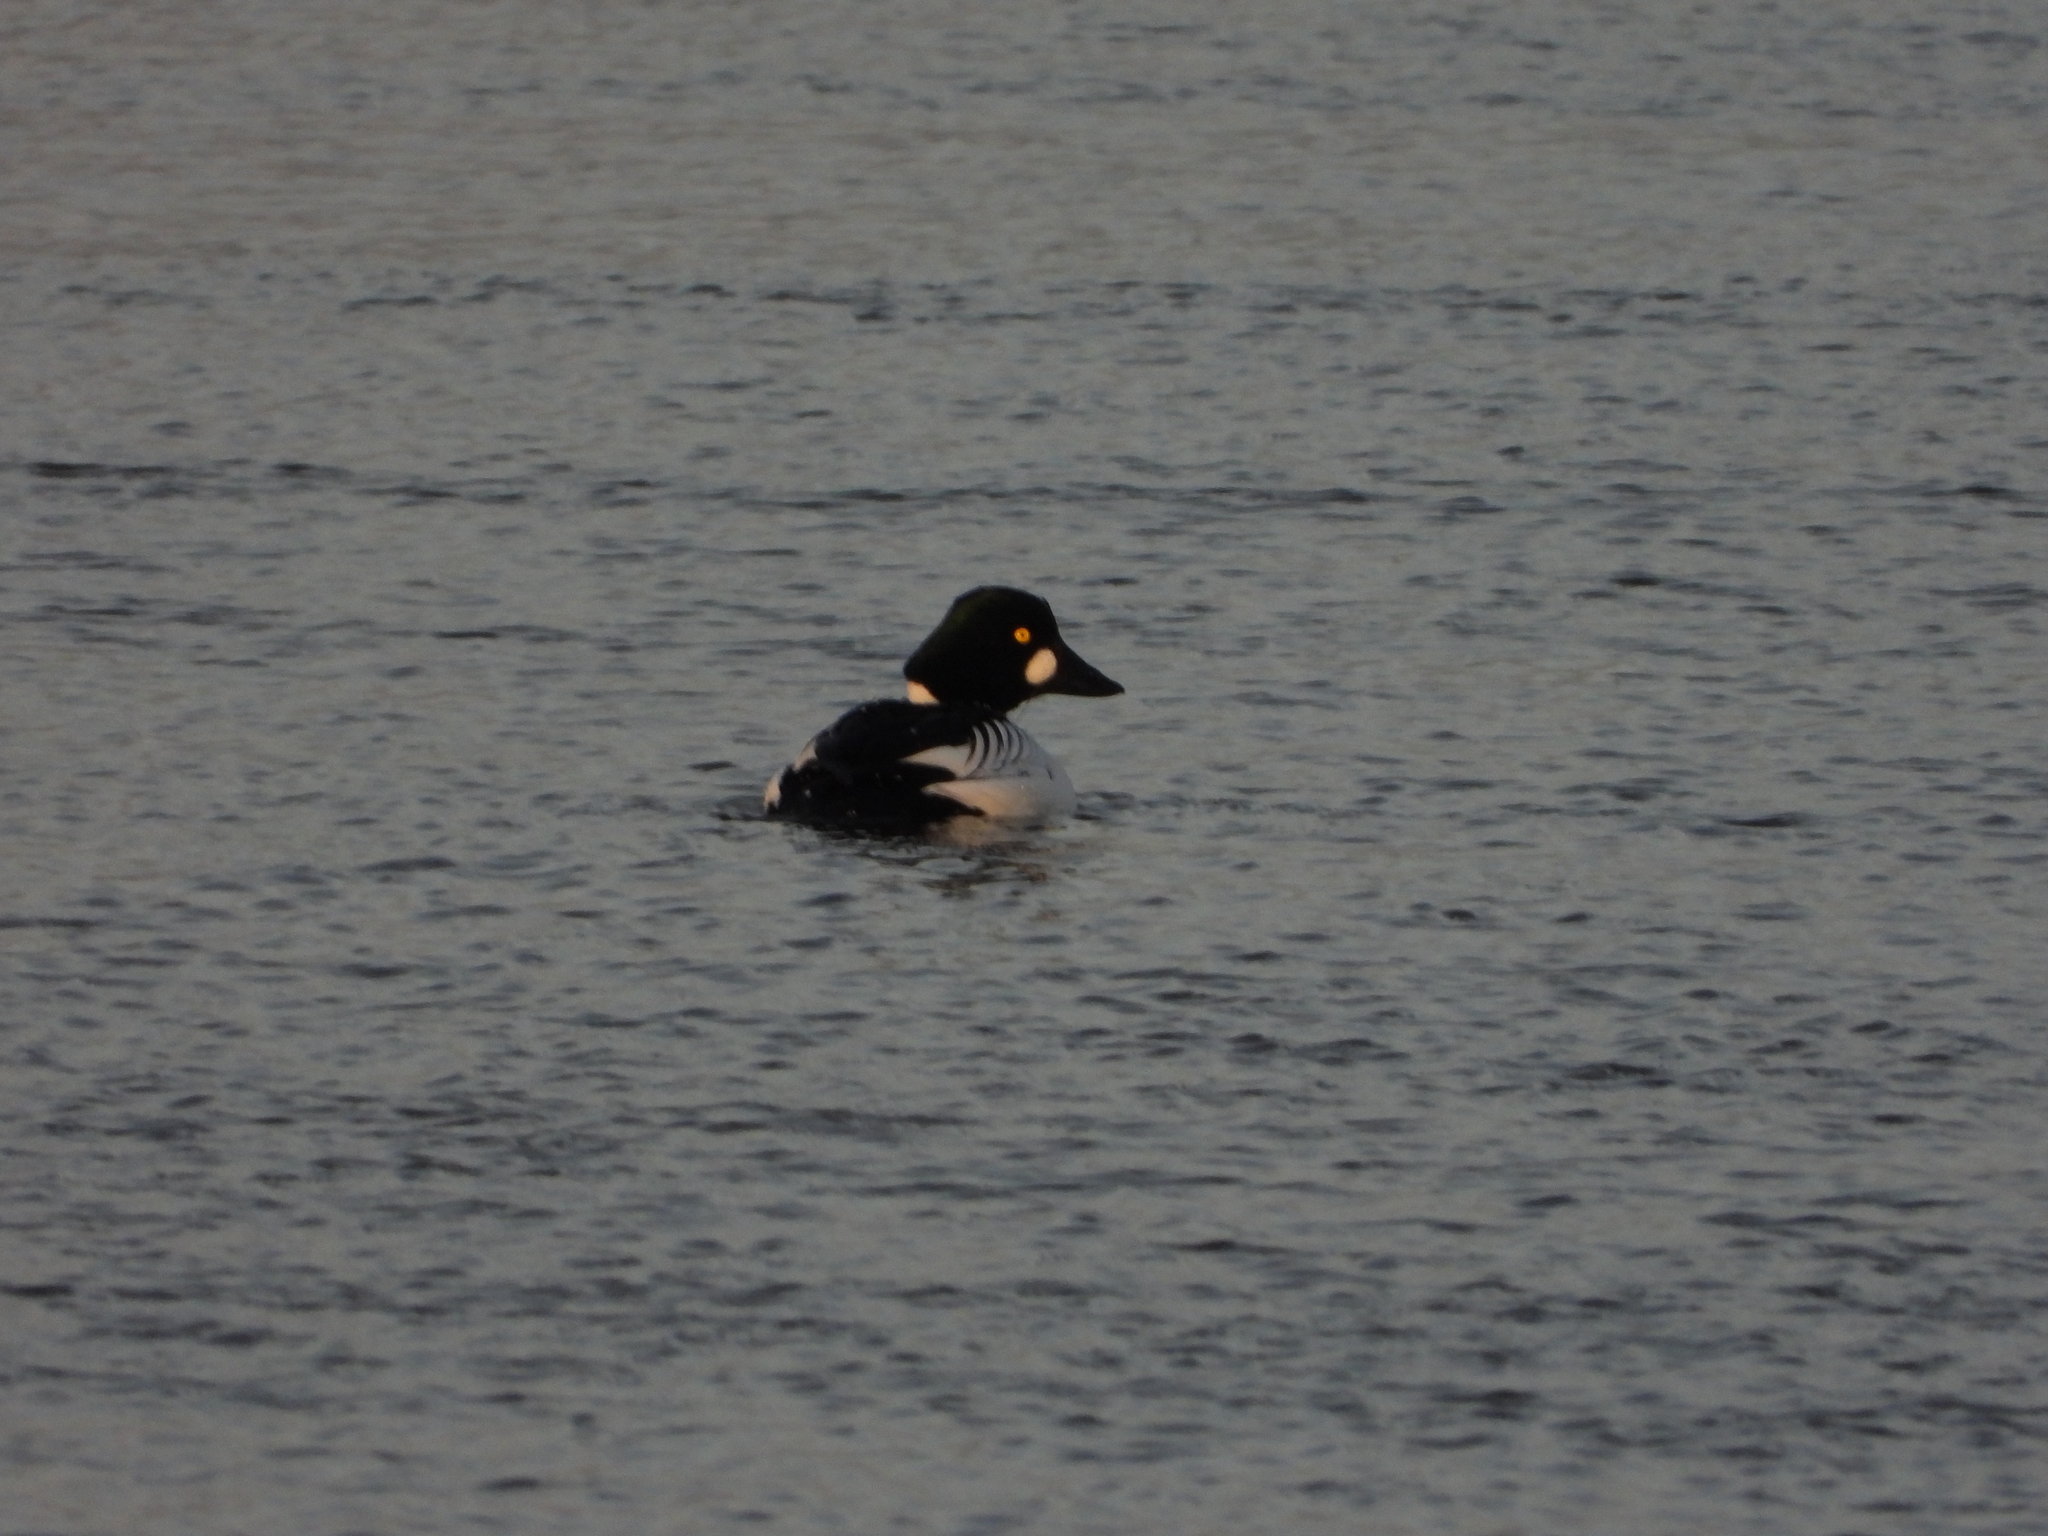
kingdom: Animalia
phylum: Chordata
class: Aves
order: Anseriformes
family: Anatidae
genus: Bucephala
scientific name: Bucephala clangula
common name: Common goldeneye
